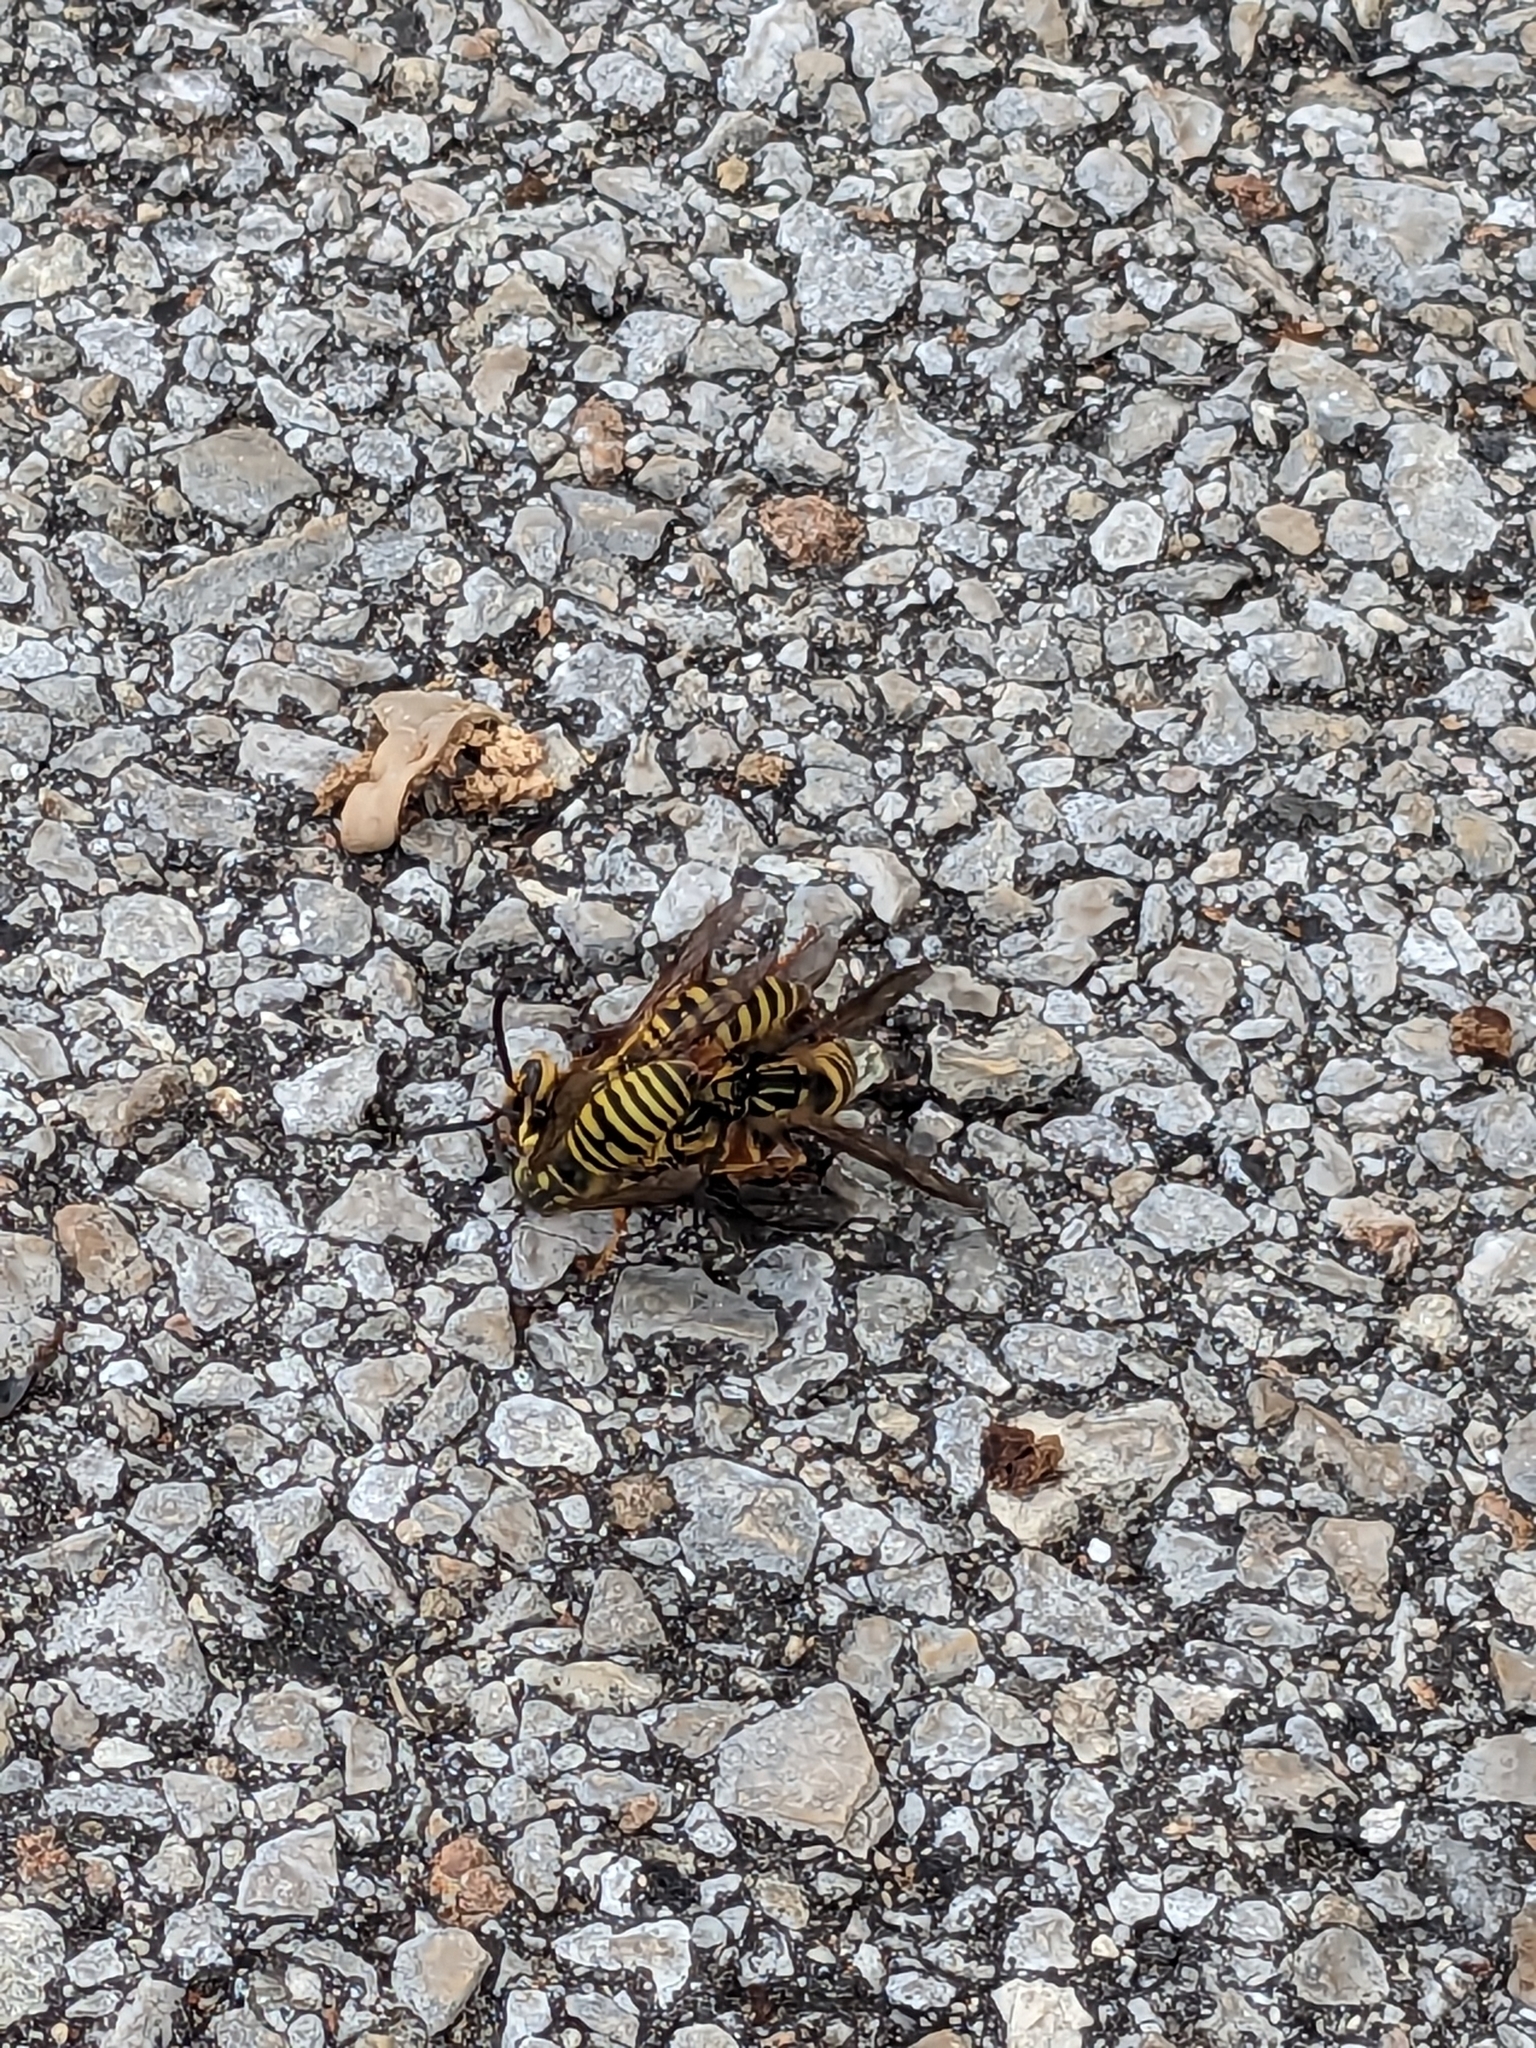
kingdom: Animalia
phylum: Arthropoda
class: Insecta
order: Hymenoptera
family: Vespidae
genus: Vespula
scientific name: Vespula squamosa
